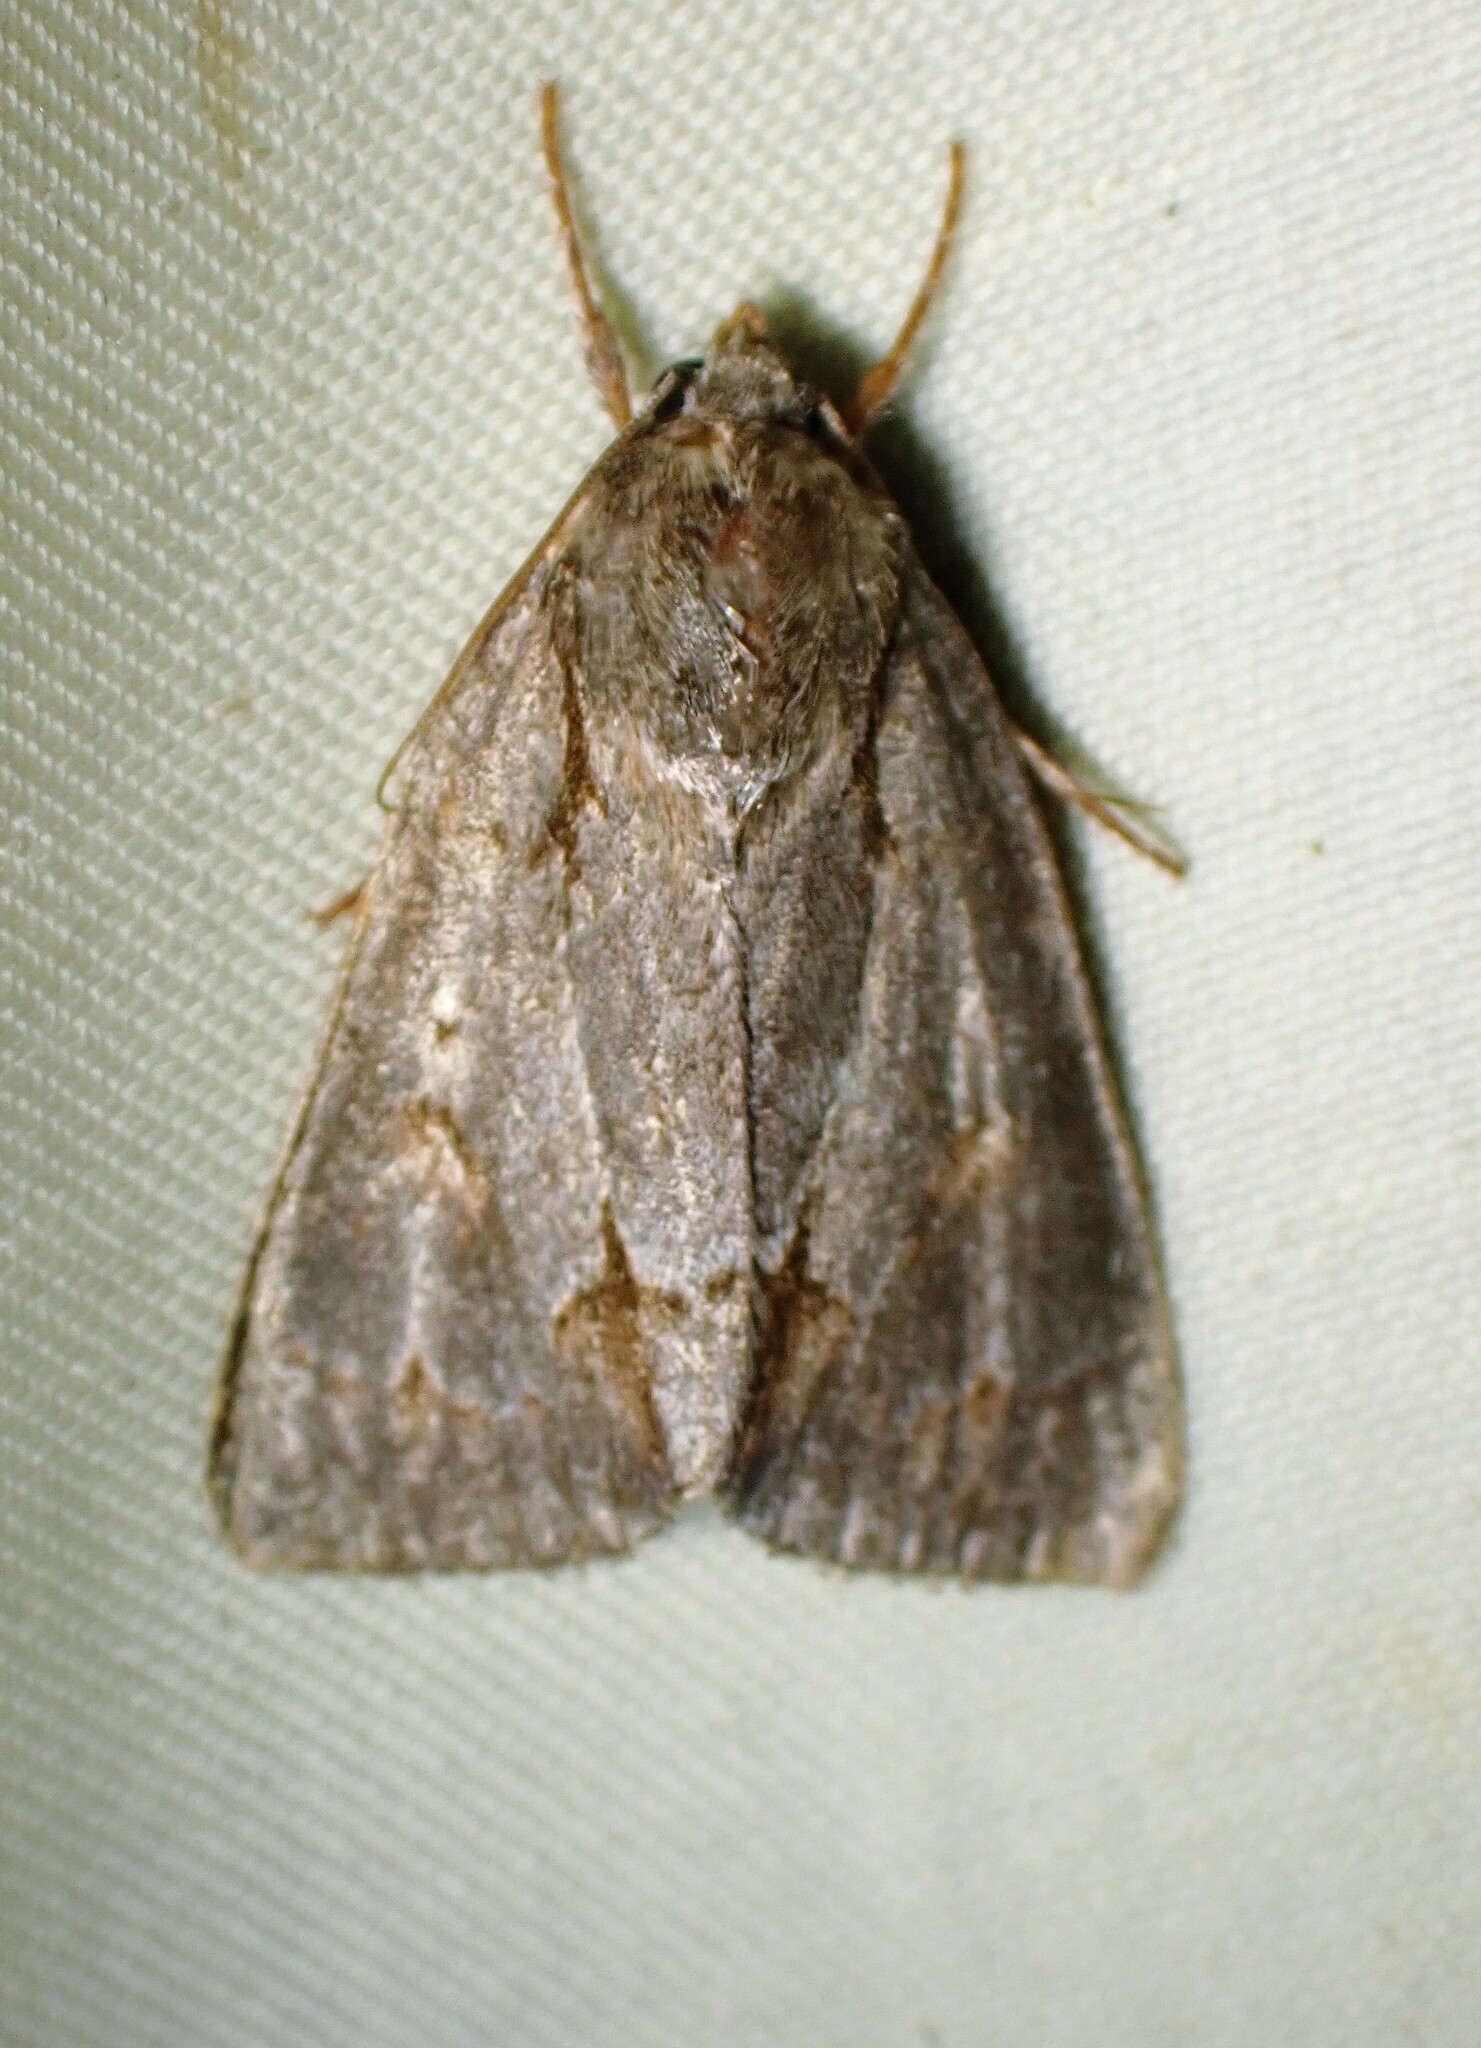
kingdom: Animalia
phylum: Arthropoda
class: Insecta
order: Lepidoptera
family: Noctuidae
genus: Acronicta
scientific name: Acronicta tritona
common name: Triton dagger
